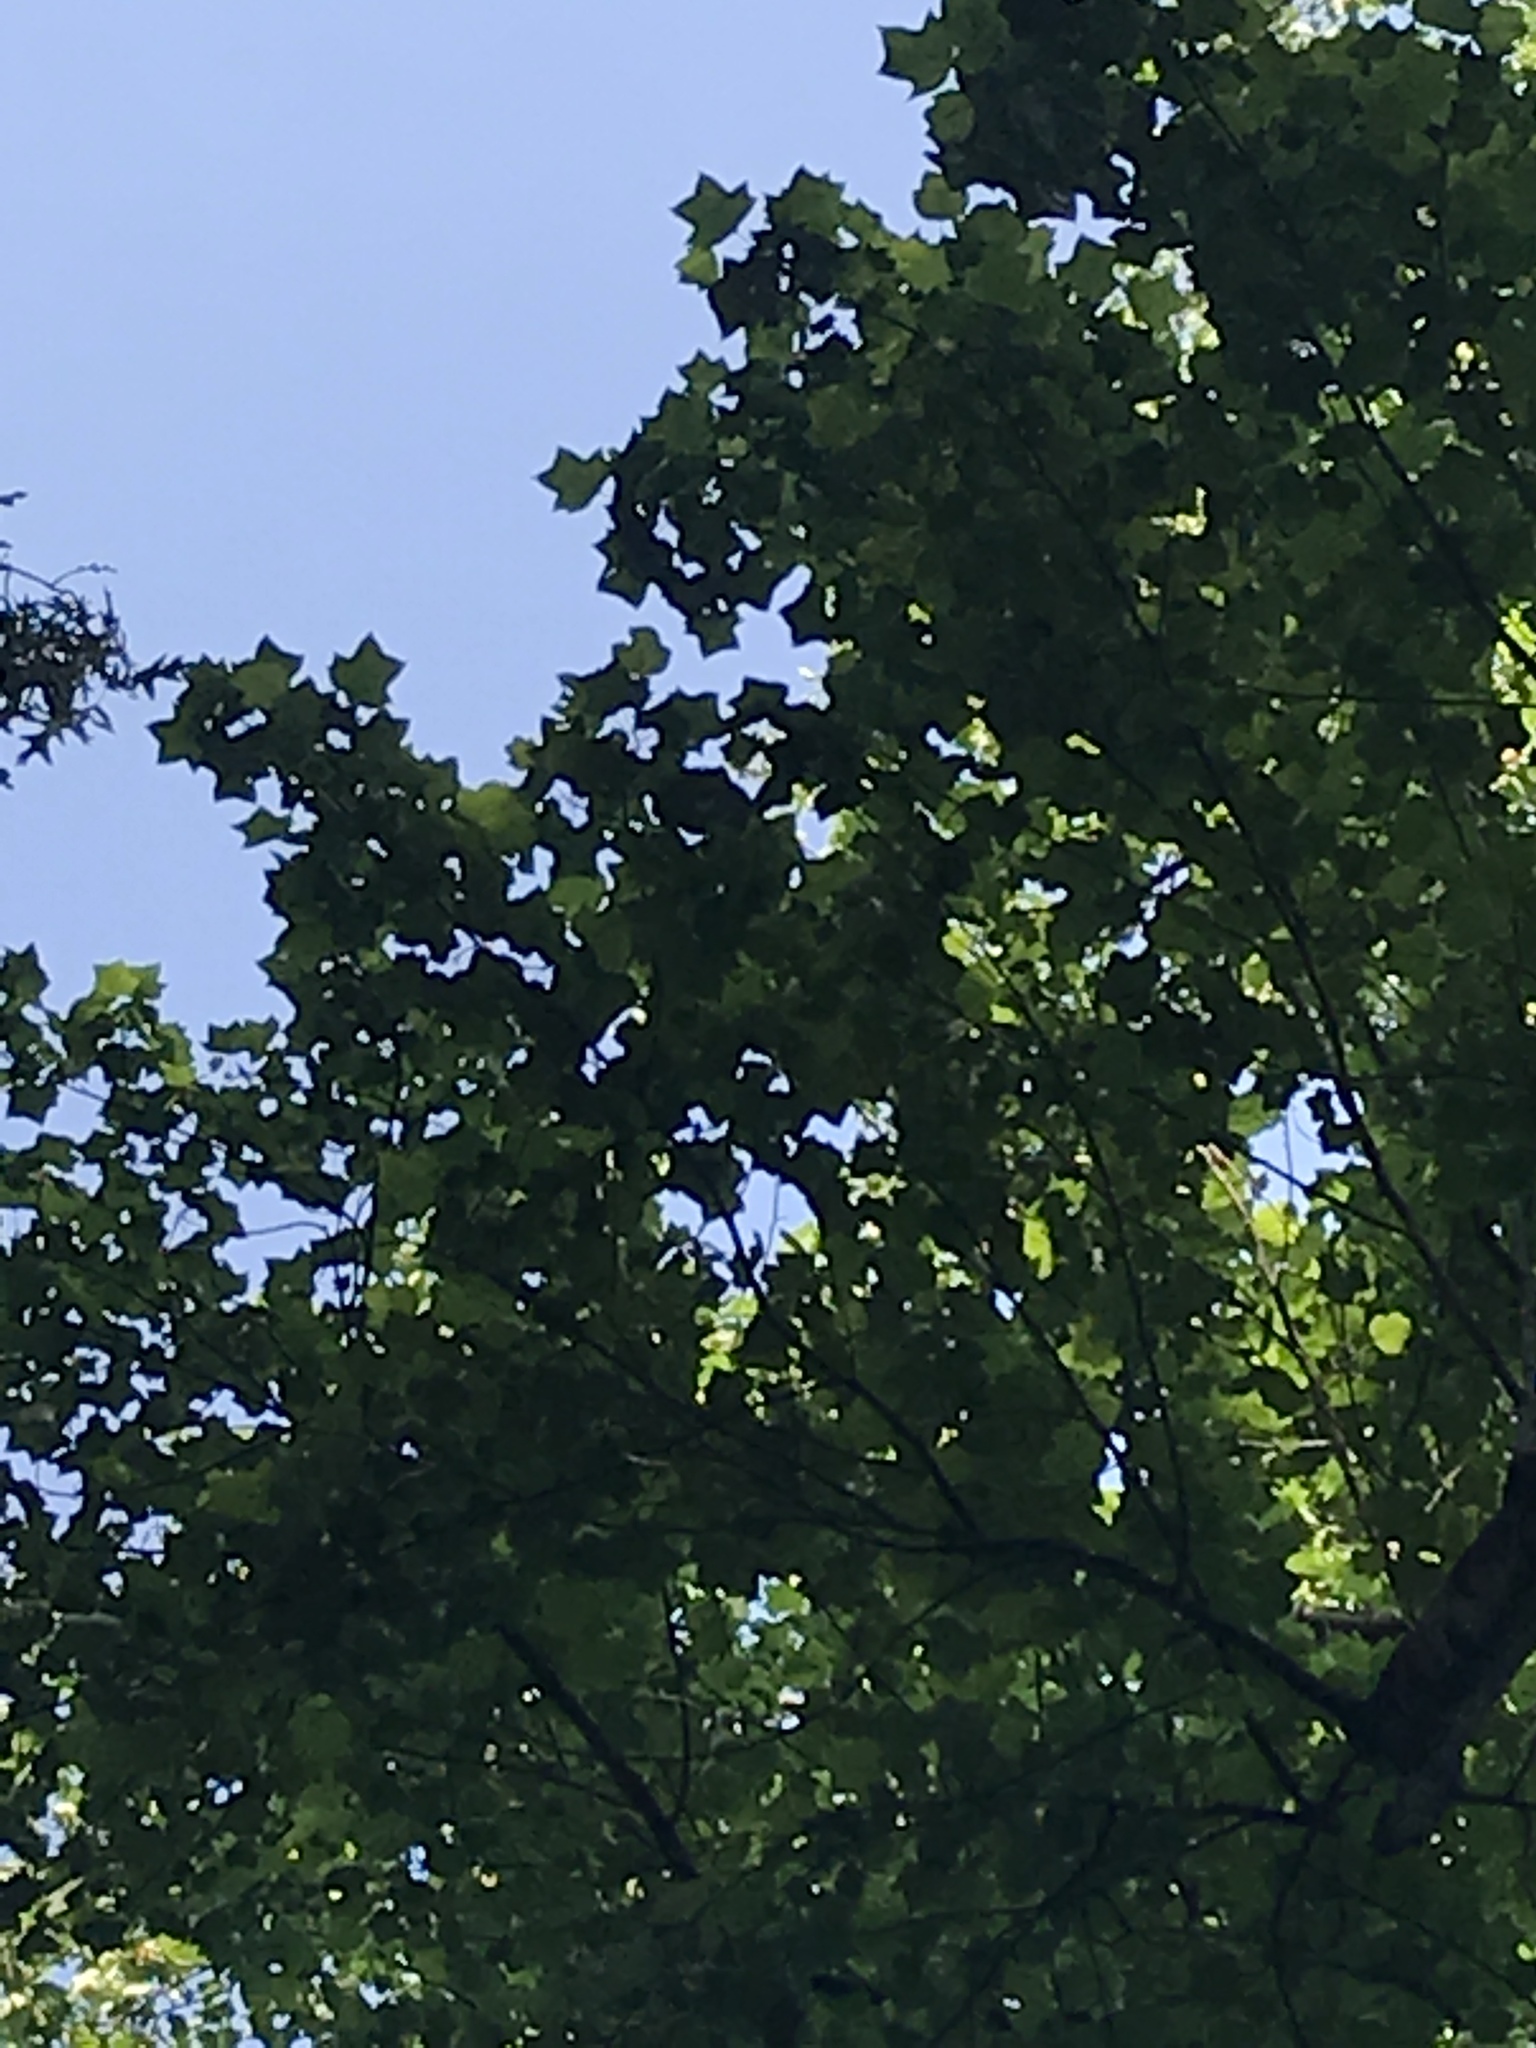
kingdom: Plantae
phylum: Tracheophyta
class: Magnoliopsida
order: Magnoliales
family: Magnoliaceae
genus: Liriodendron
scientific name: Liriodendron tulipifera
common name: Tulip tree
